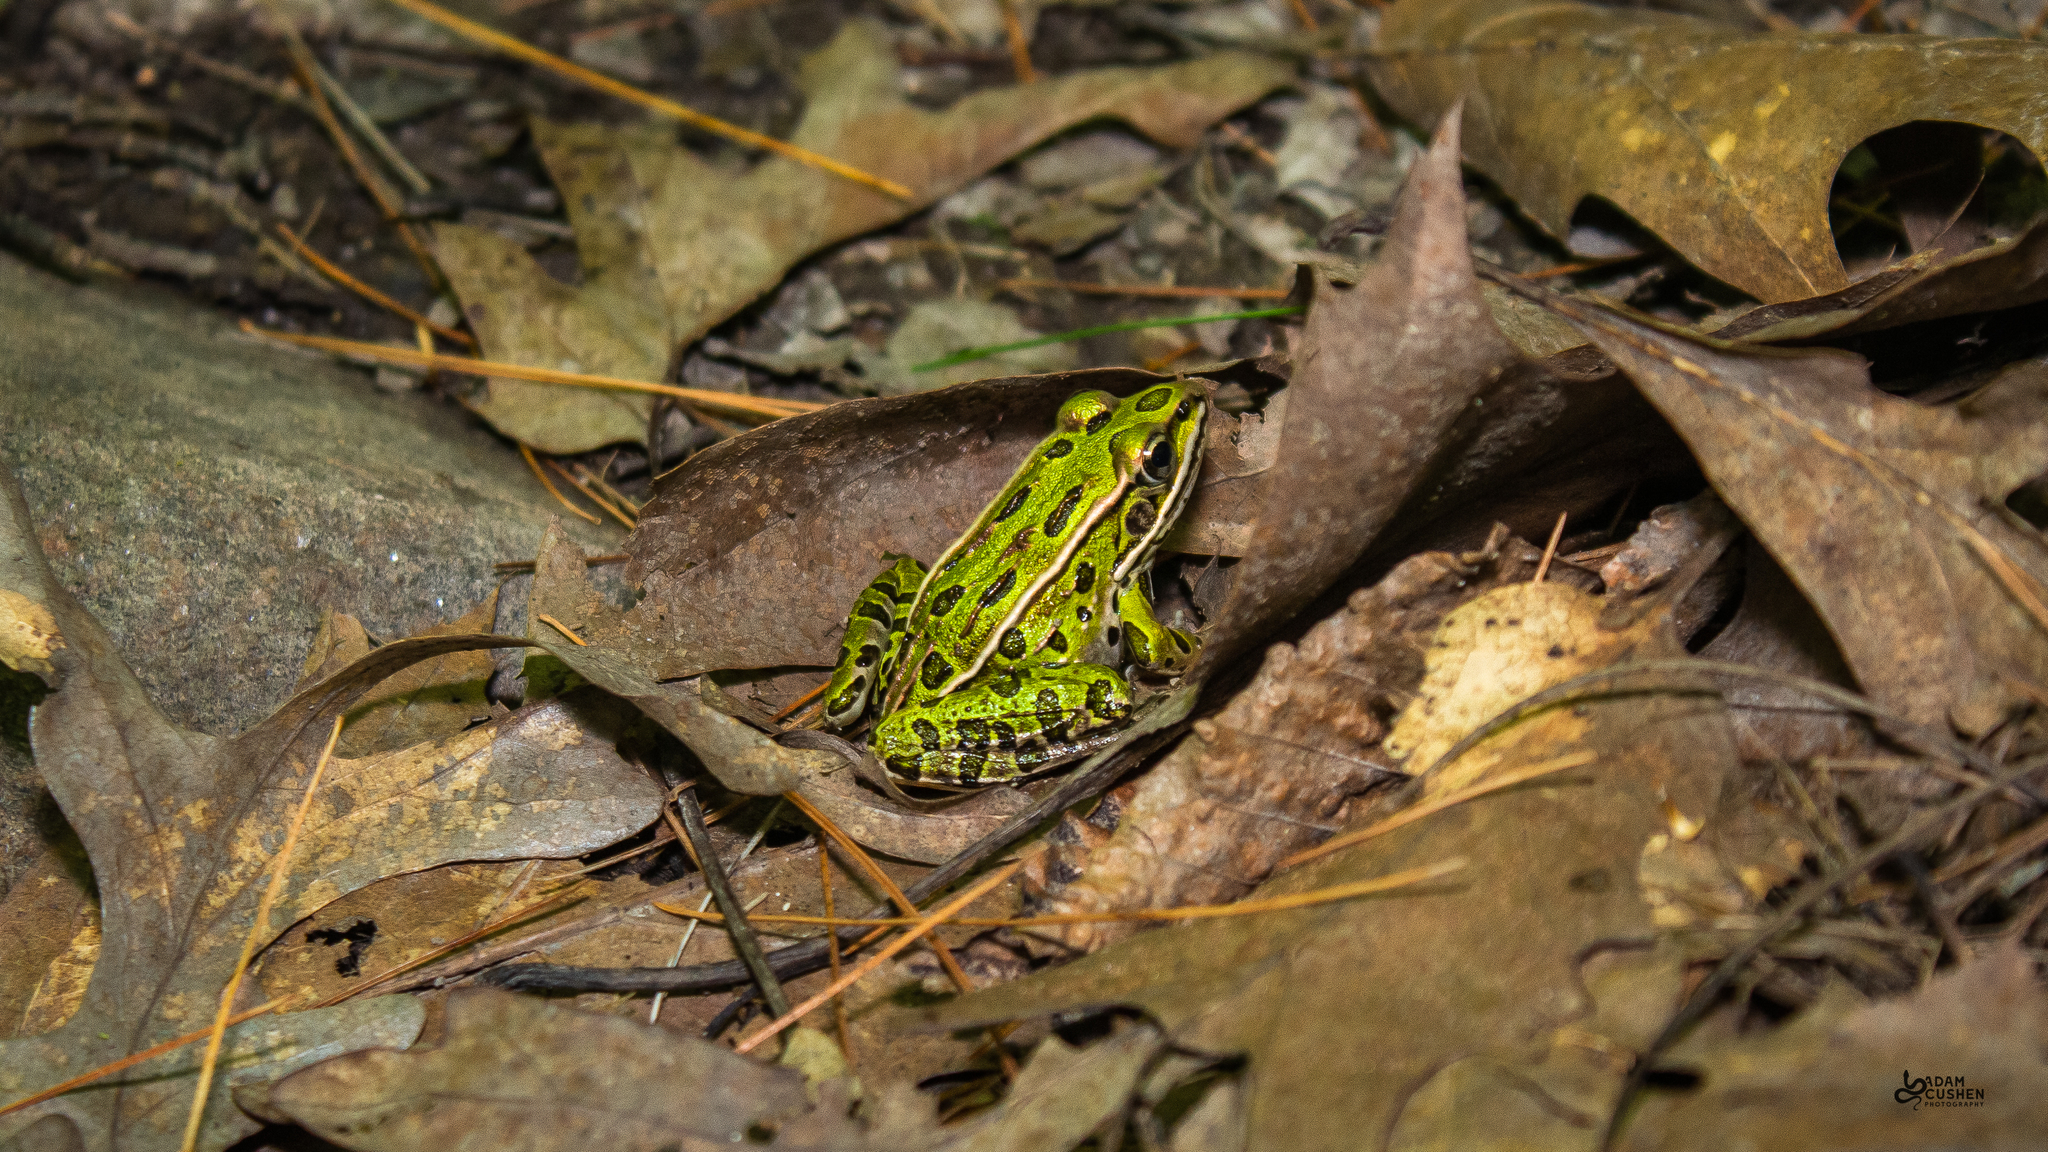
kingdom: Animalia
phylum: Chordata
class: Amphibia
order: Anura
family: Ranidae
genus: Lithobates
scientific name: Lithobates pipiens
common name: Northern leopard frog
